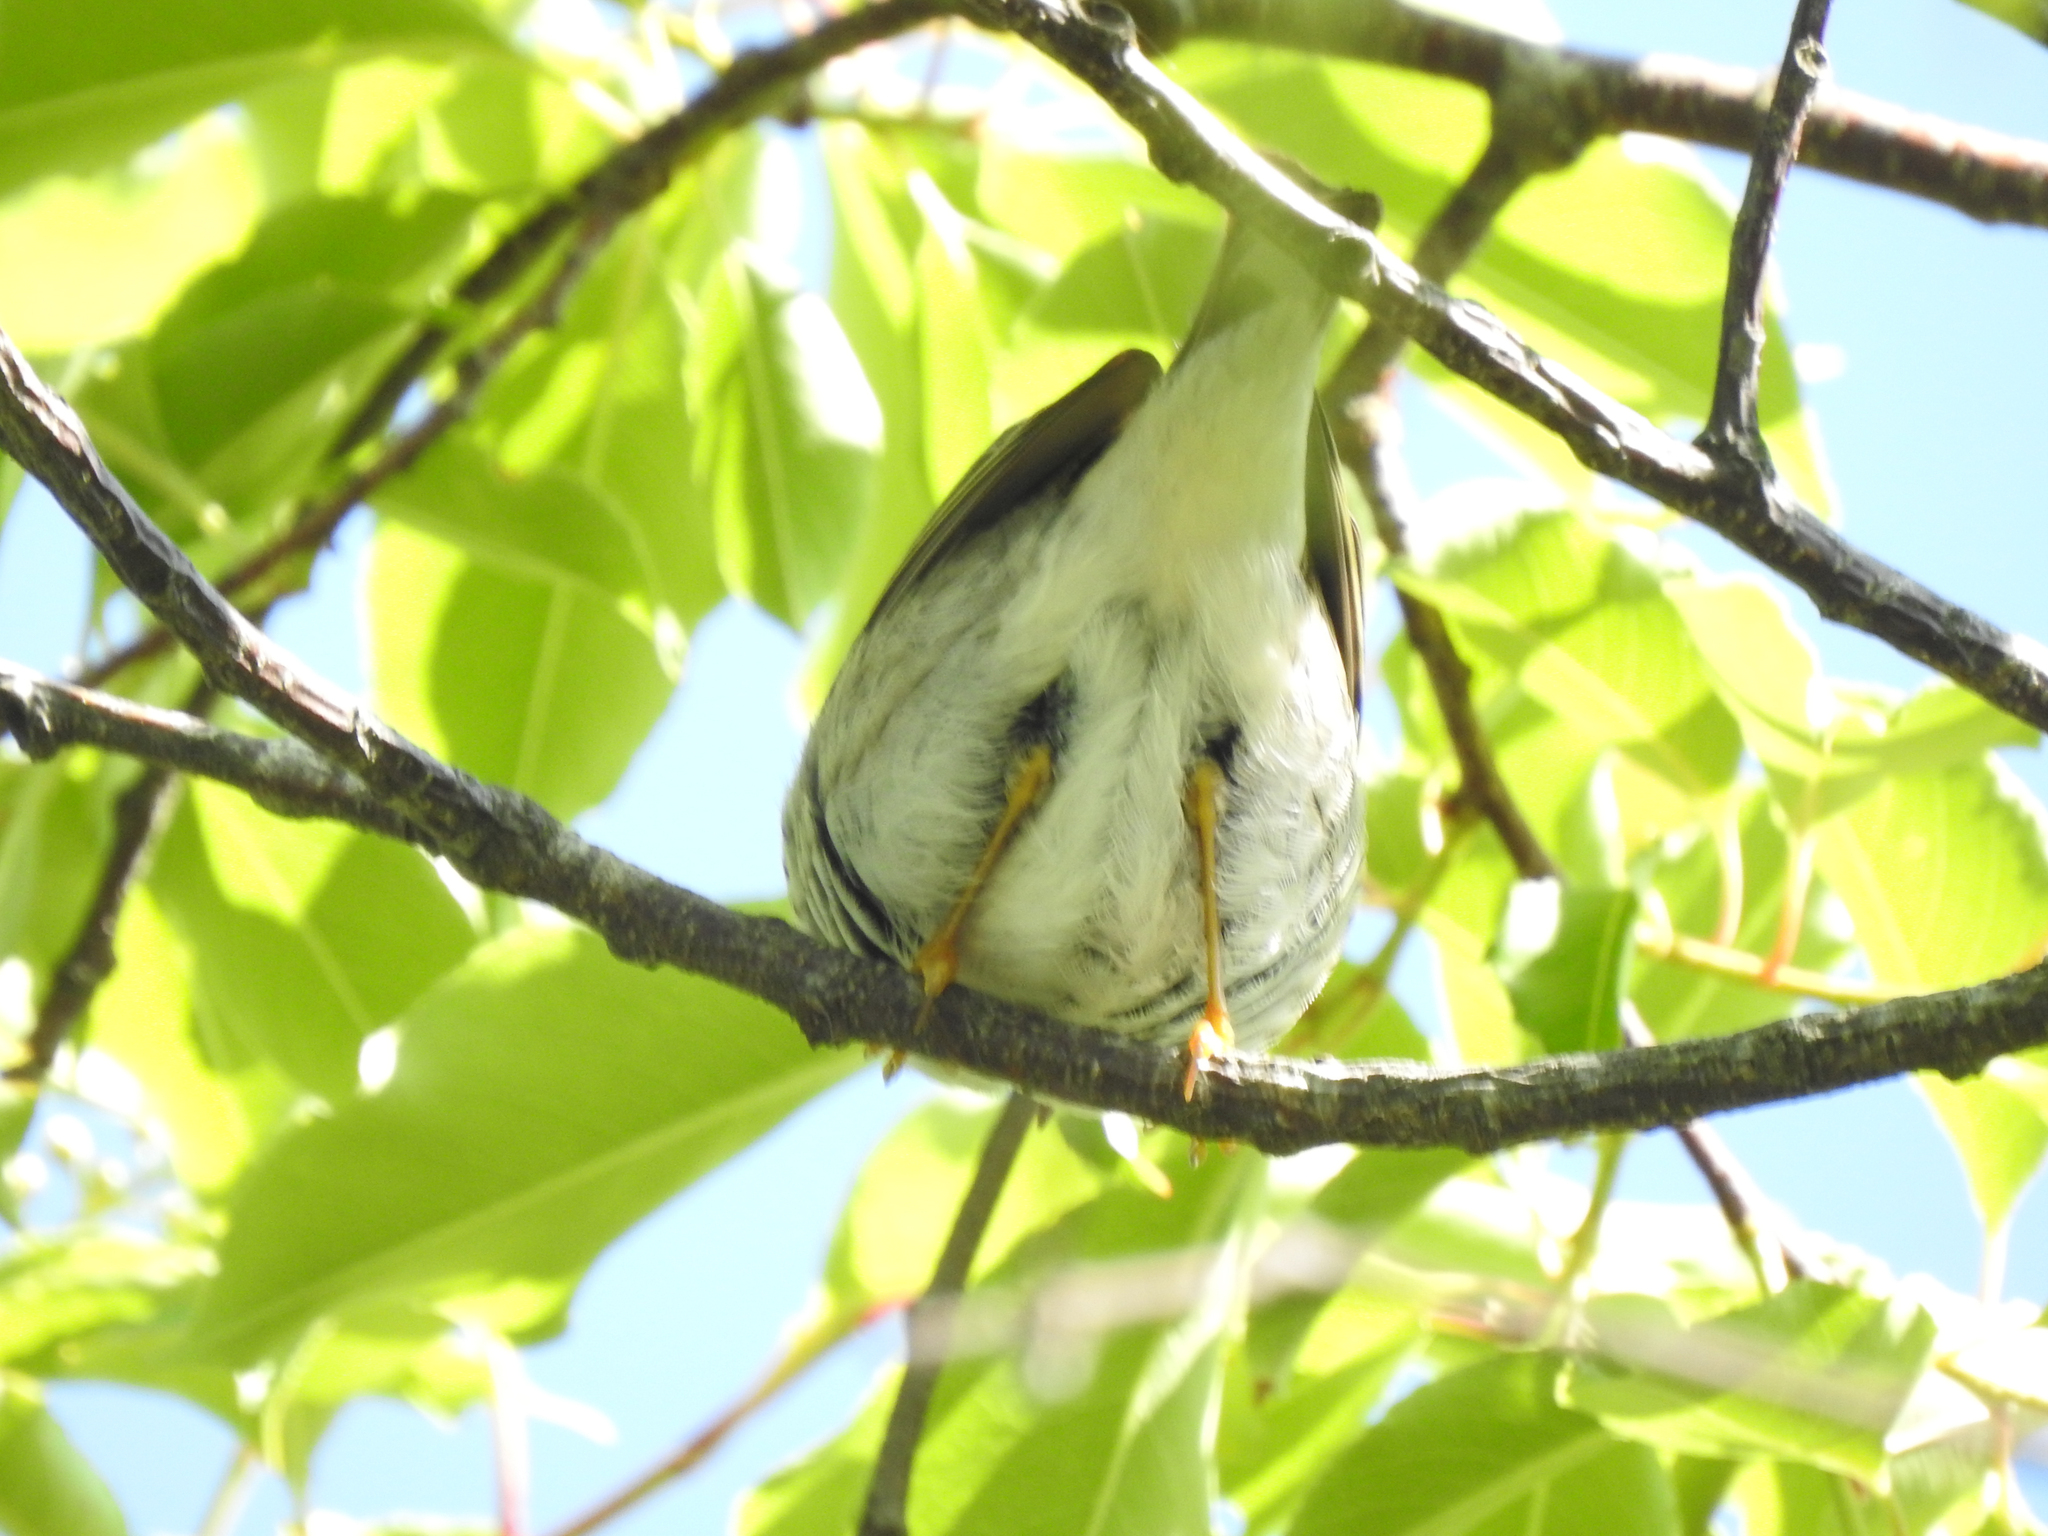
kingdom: Animalia
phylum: Chordata
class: Aves
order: Passeriformes
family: Parulidae
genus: Setophaga
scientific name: Setophaga striata
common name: Blackpoll warbler
